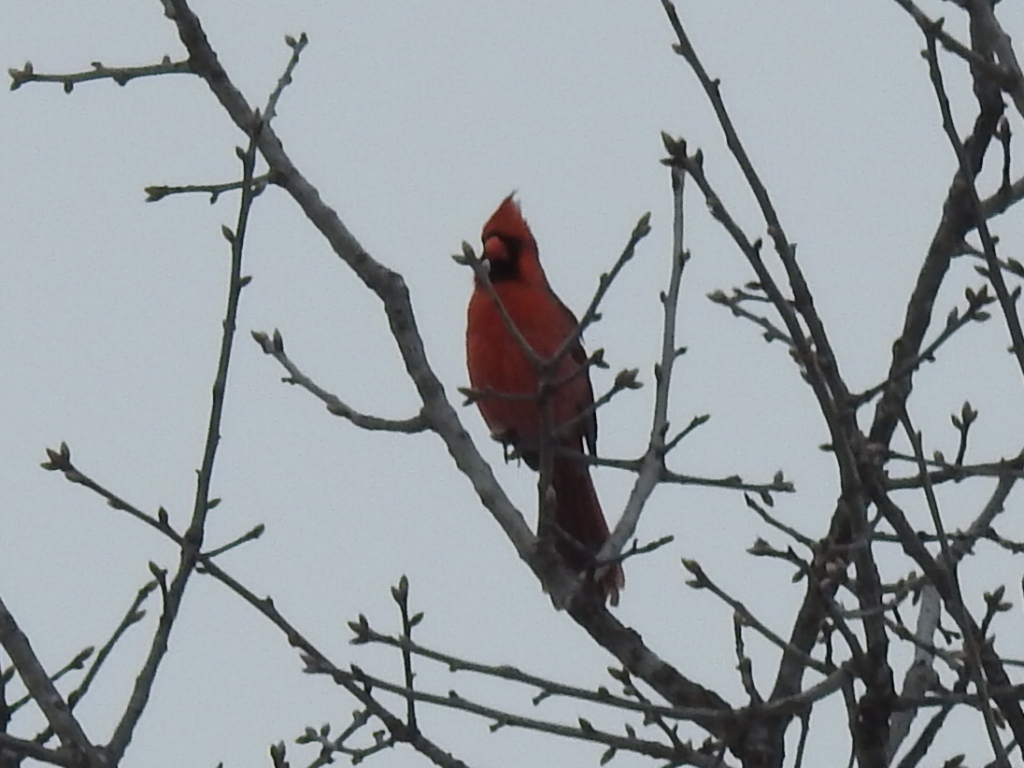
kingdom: Animalia
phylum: Chordata
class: Aves
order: Passeriformes
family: Cardinalidae
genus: Cardinalis
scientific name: Cardinalis cardinalis
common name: Northern cardinal
